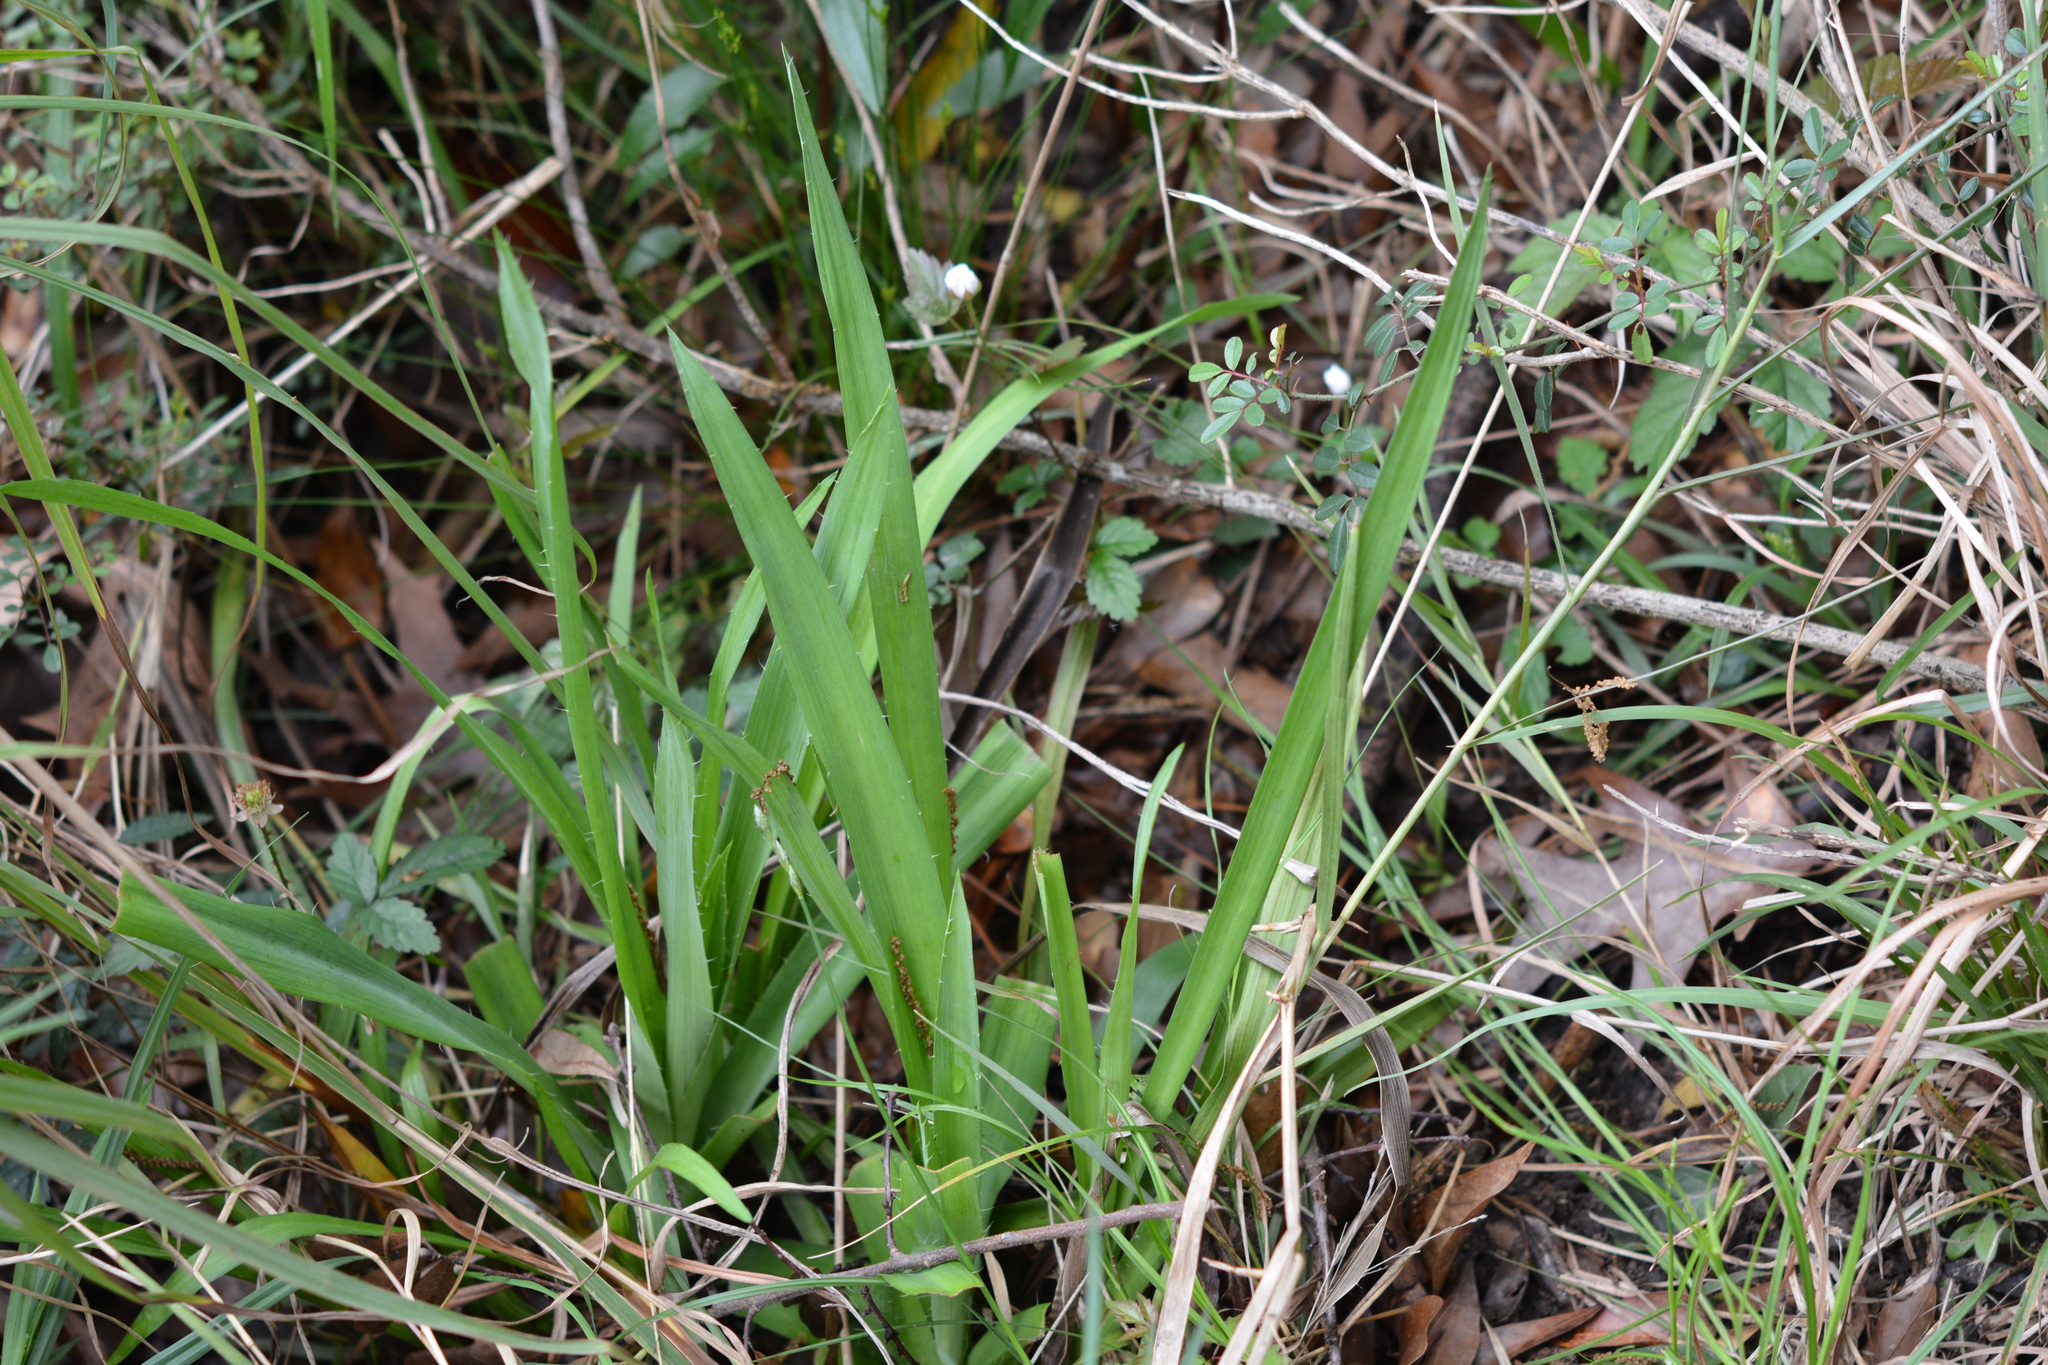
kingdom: Plantae
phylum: Tracheophyta
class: Magnoliopsida
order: Apiales
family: Apiaceae
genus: Eryngium
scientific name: Eryngium yuccifolium
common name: Button eryngo
